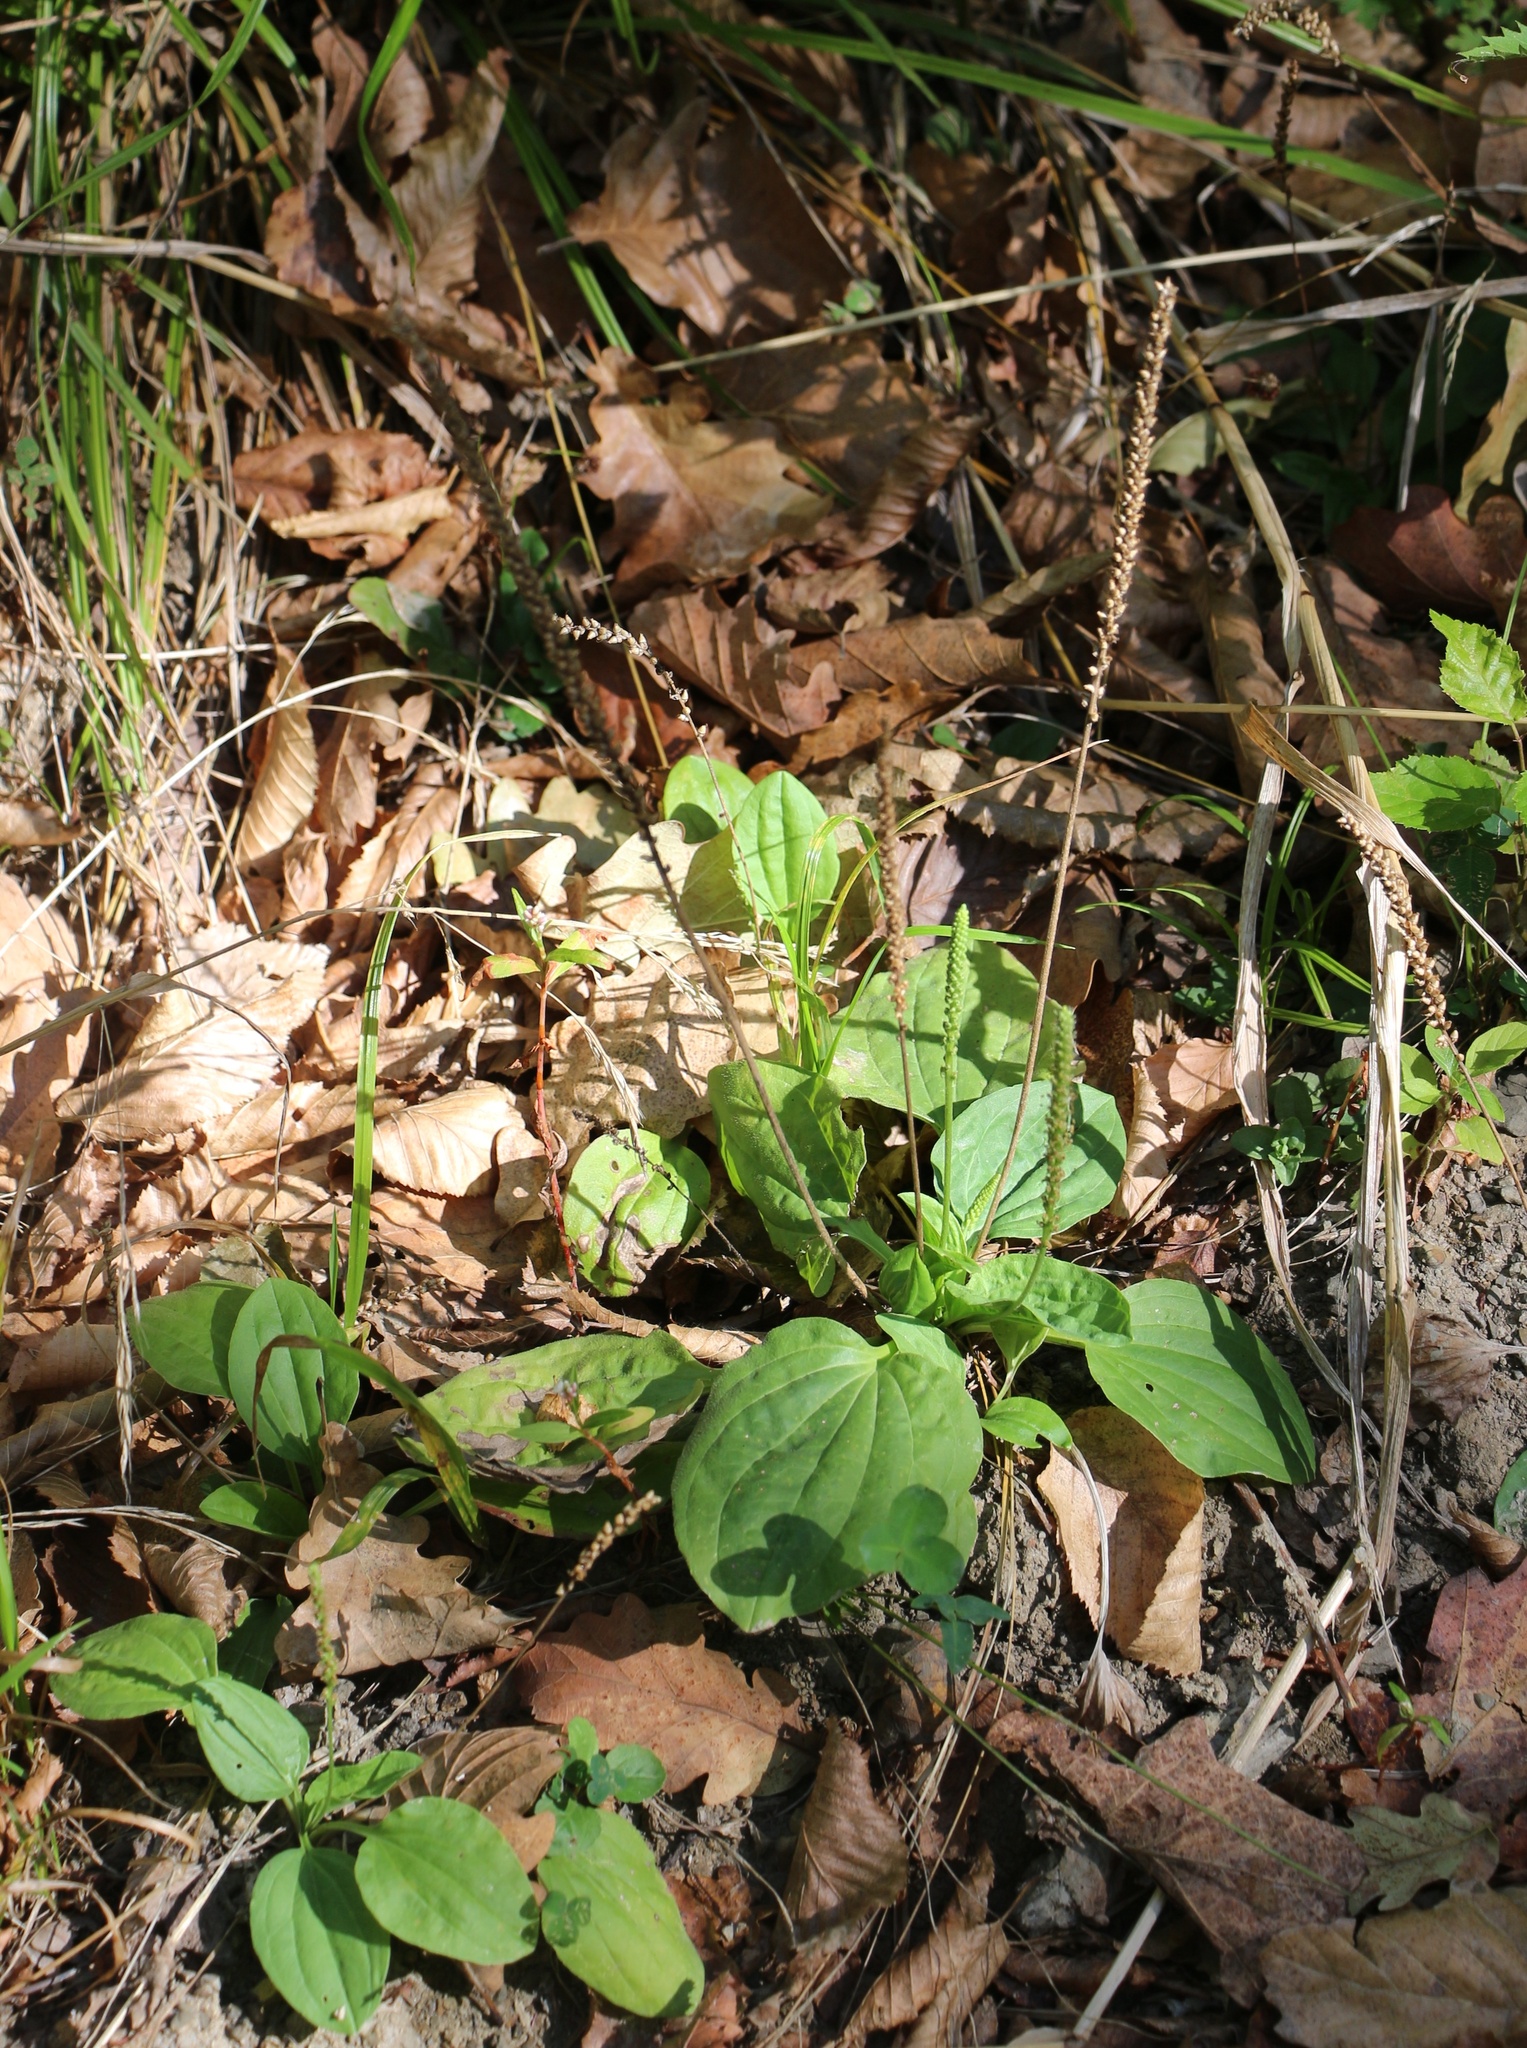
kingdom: Plantae
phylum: Tracheophyta
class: Magnoliopsida
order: Lamiales
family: Plantaginaceae
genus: Plantago
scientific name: Plantago major
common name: Common plantain
